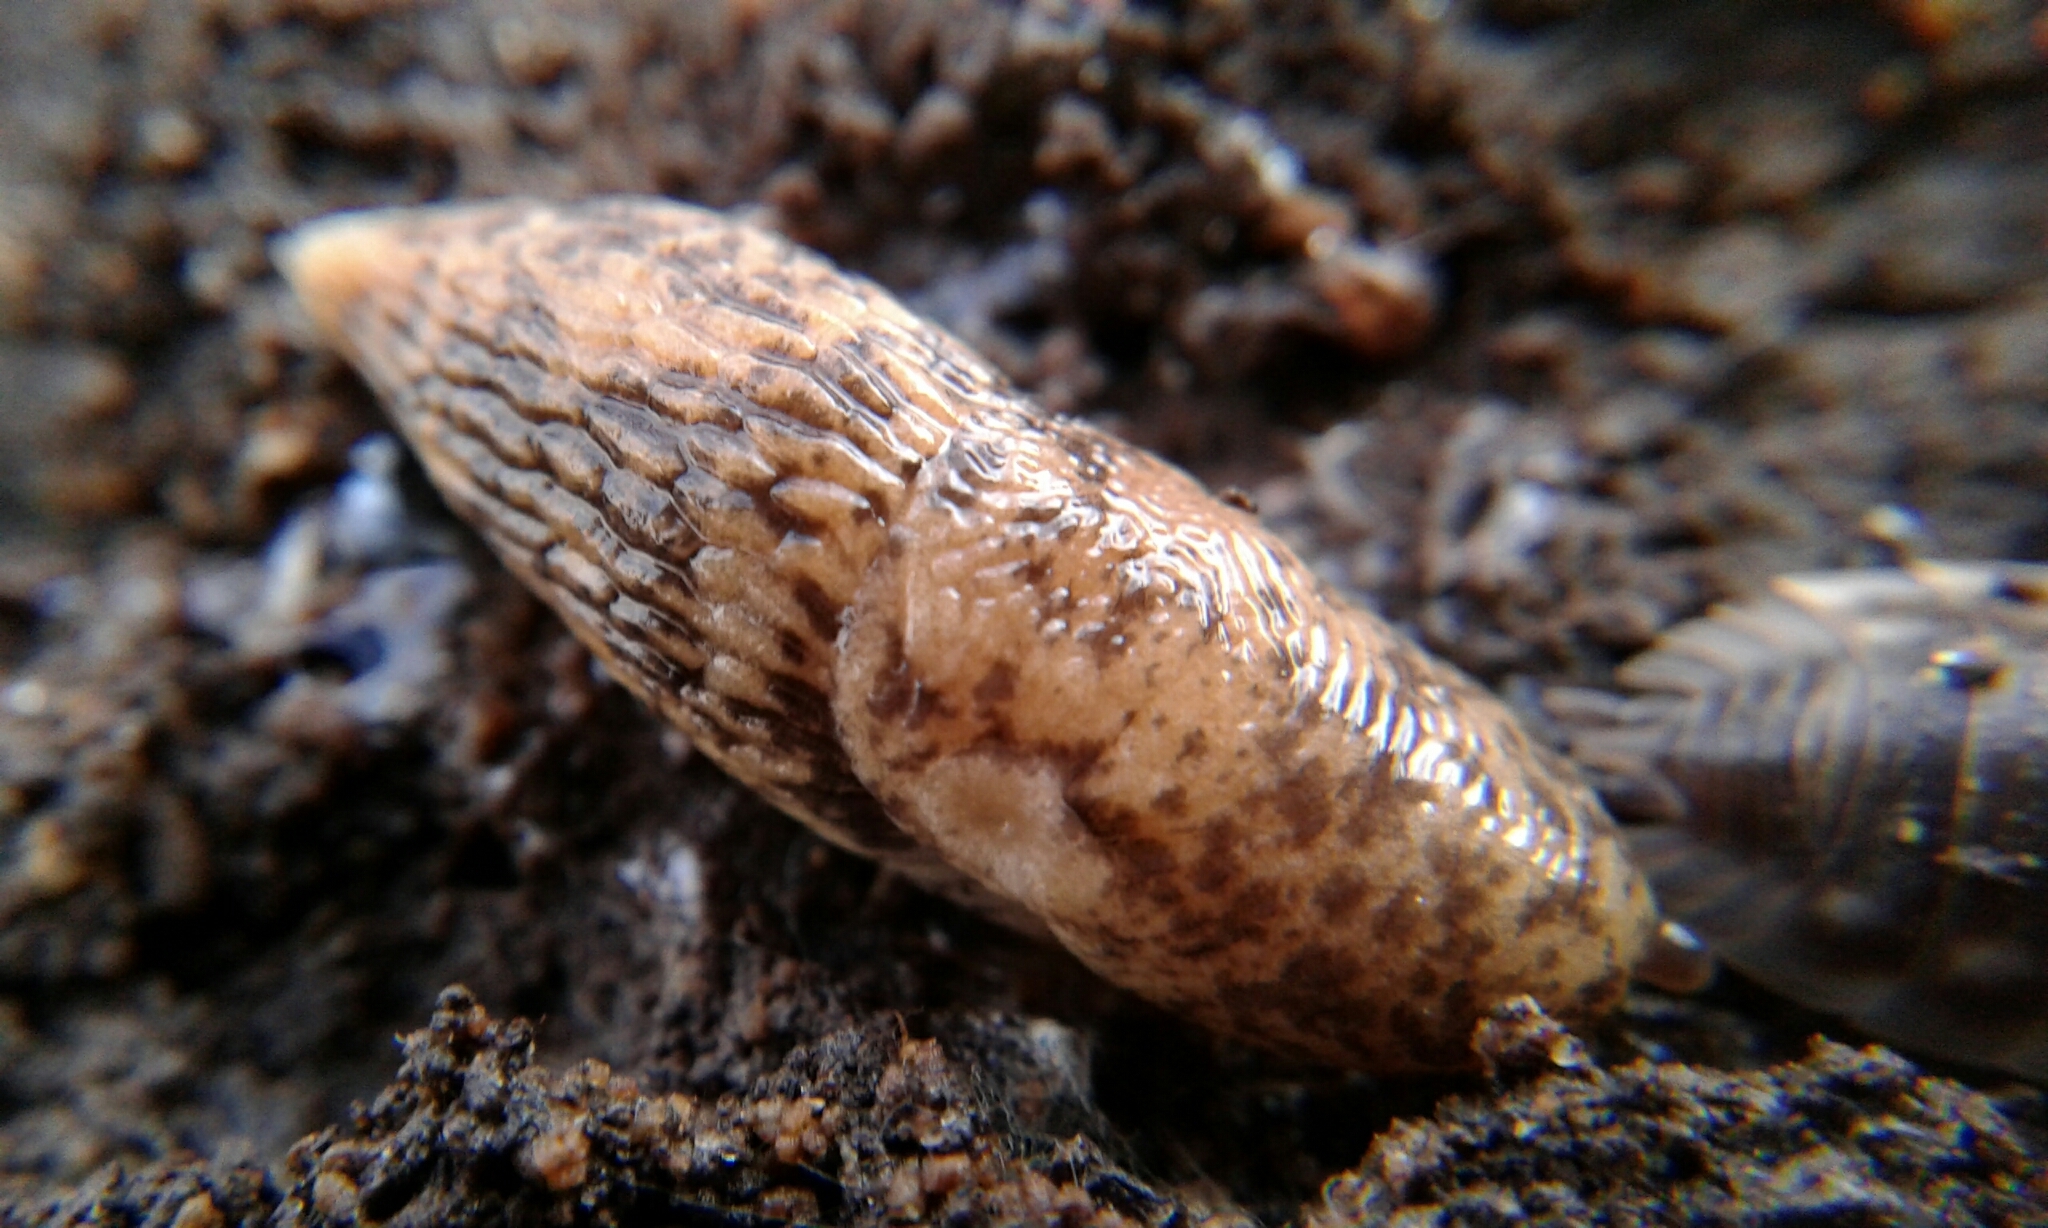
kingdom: Animalia
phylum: Mollusca
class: Gastropoda
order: Stylommatophora
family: Agriolimacidae
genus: Deroceras
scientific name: Deroceras reticulatum
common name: Gray field slug
